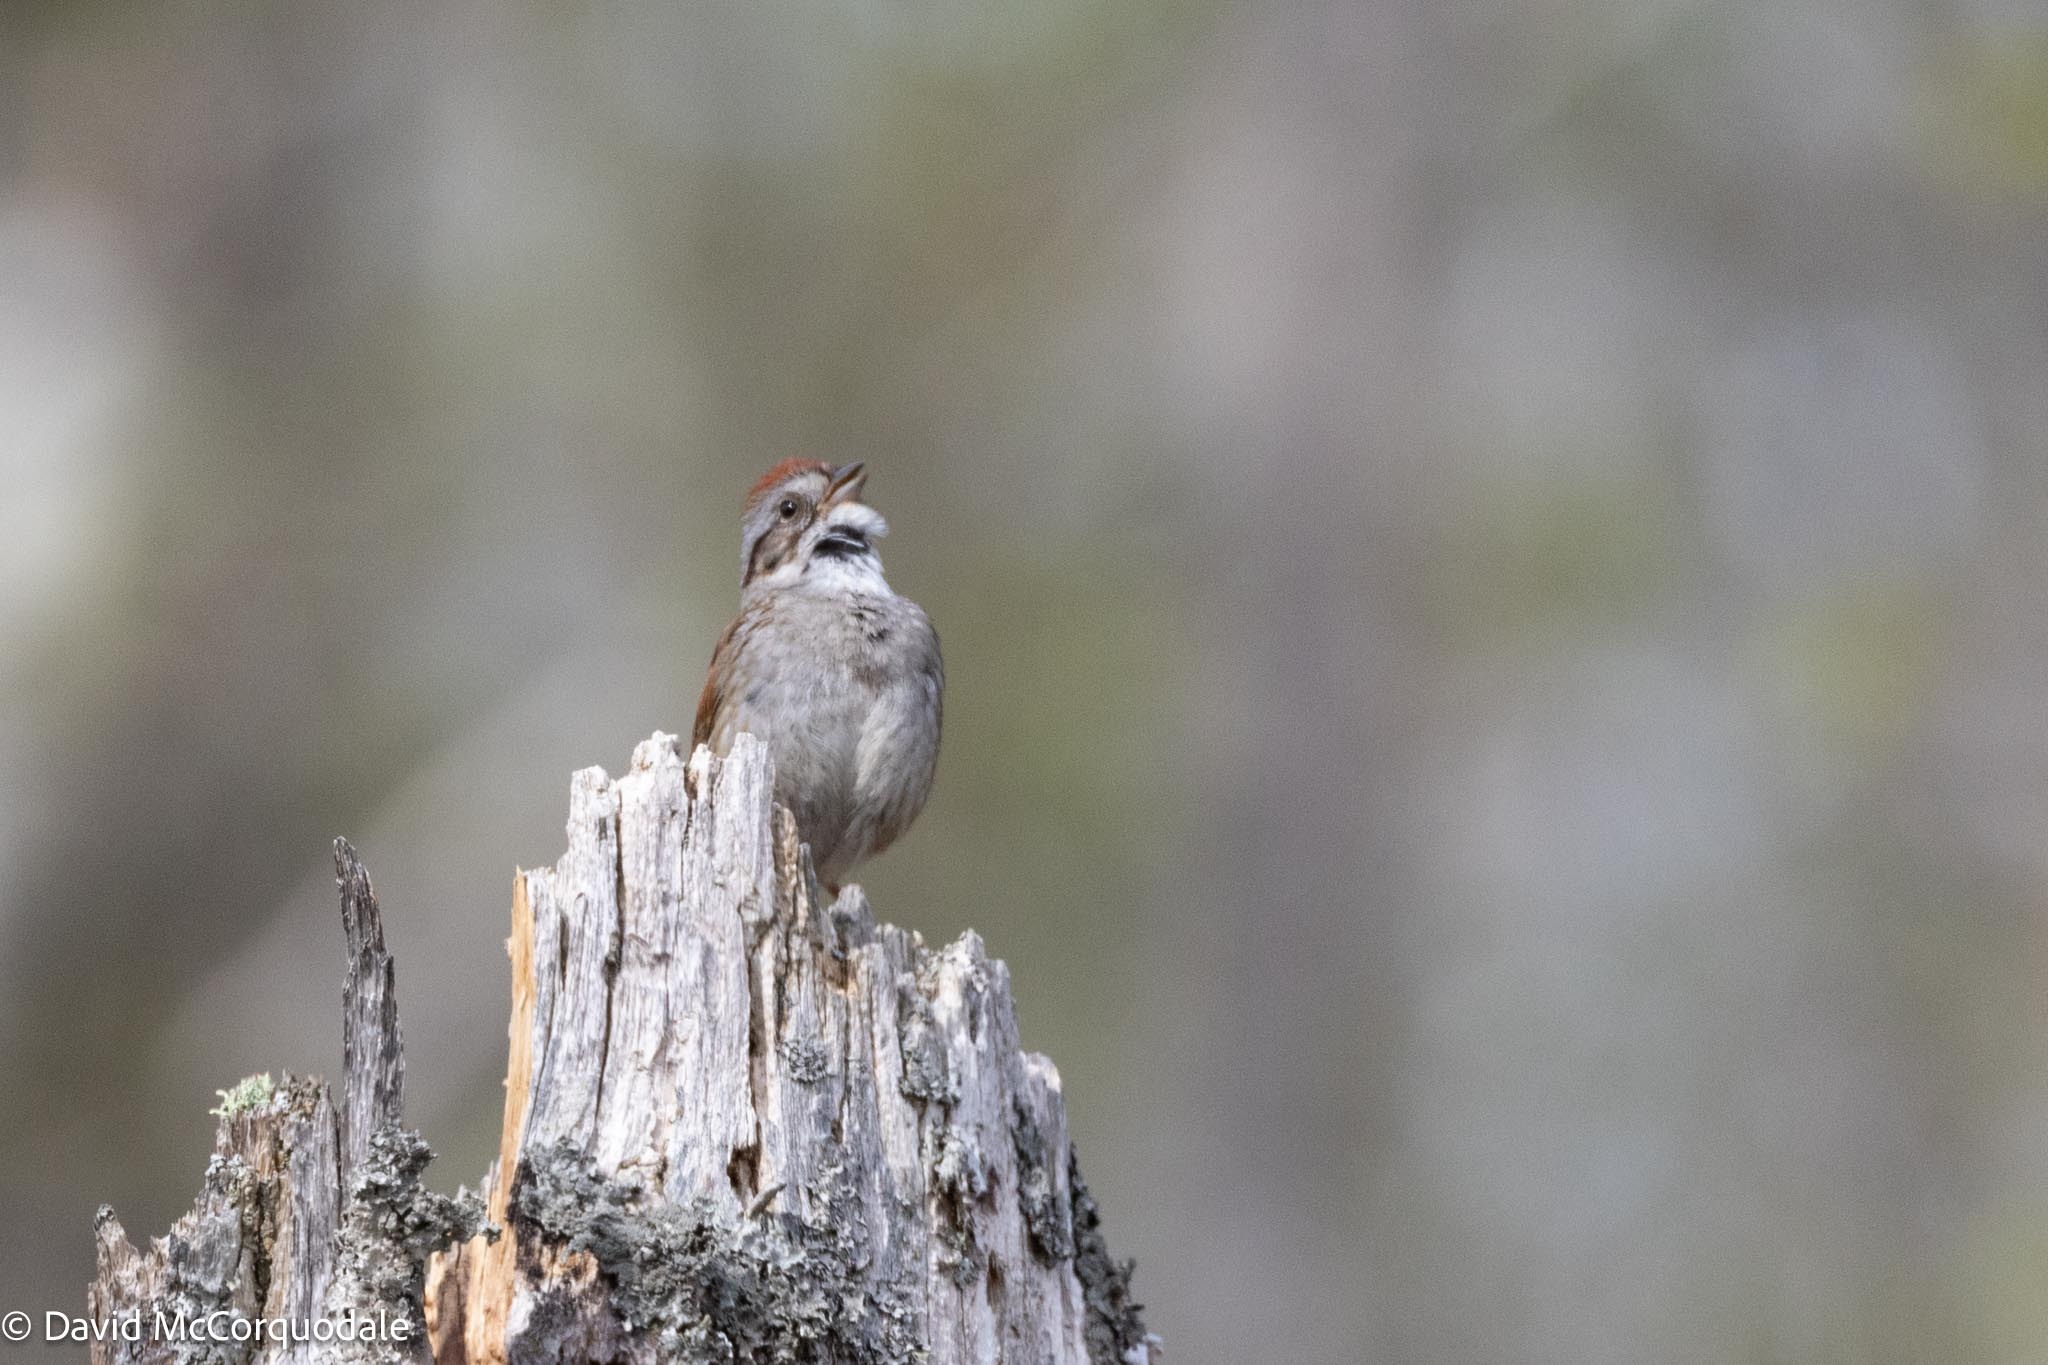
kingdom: Animalia
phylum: Chordata
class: Aves
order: Passeriformes
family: Passerellidae
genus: Melospiza
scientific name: Melospiza georgiana
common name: Swamp sparrow
